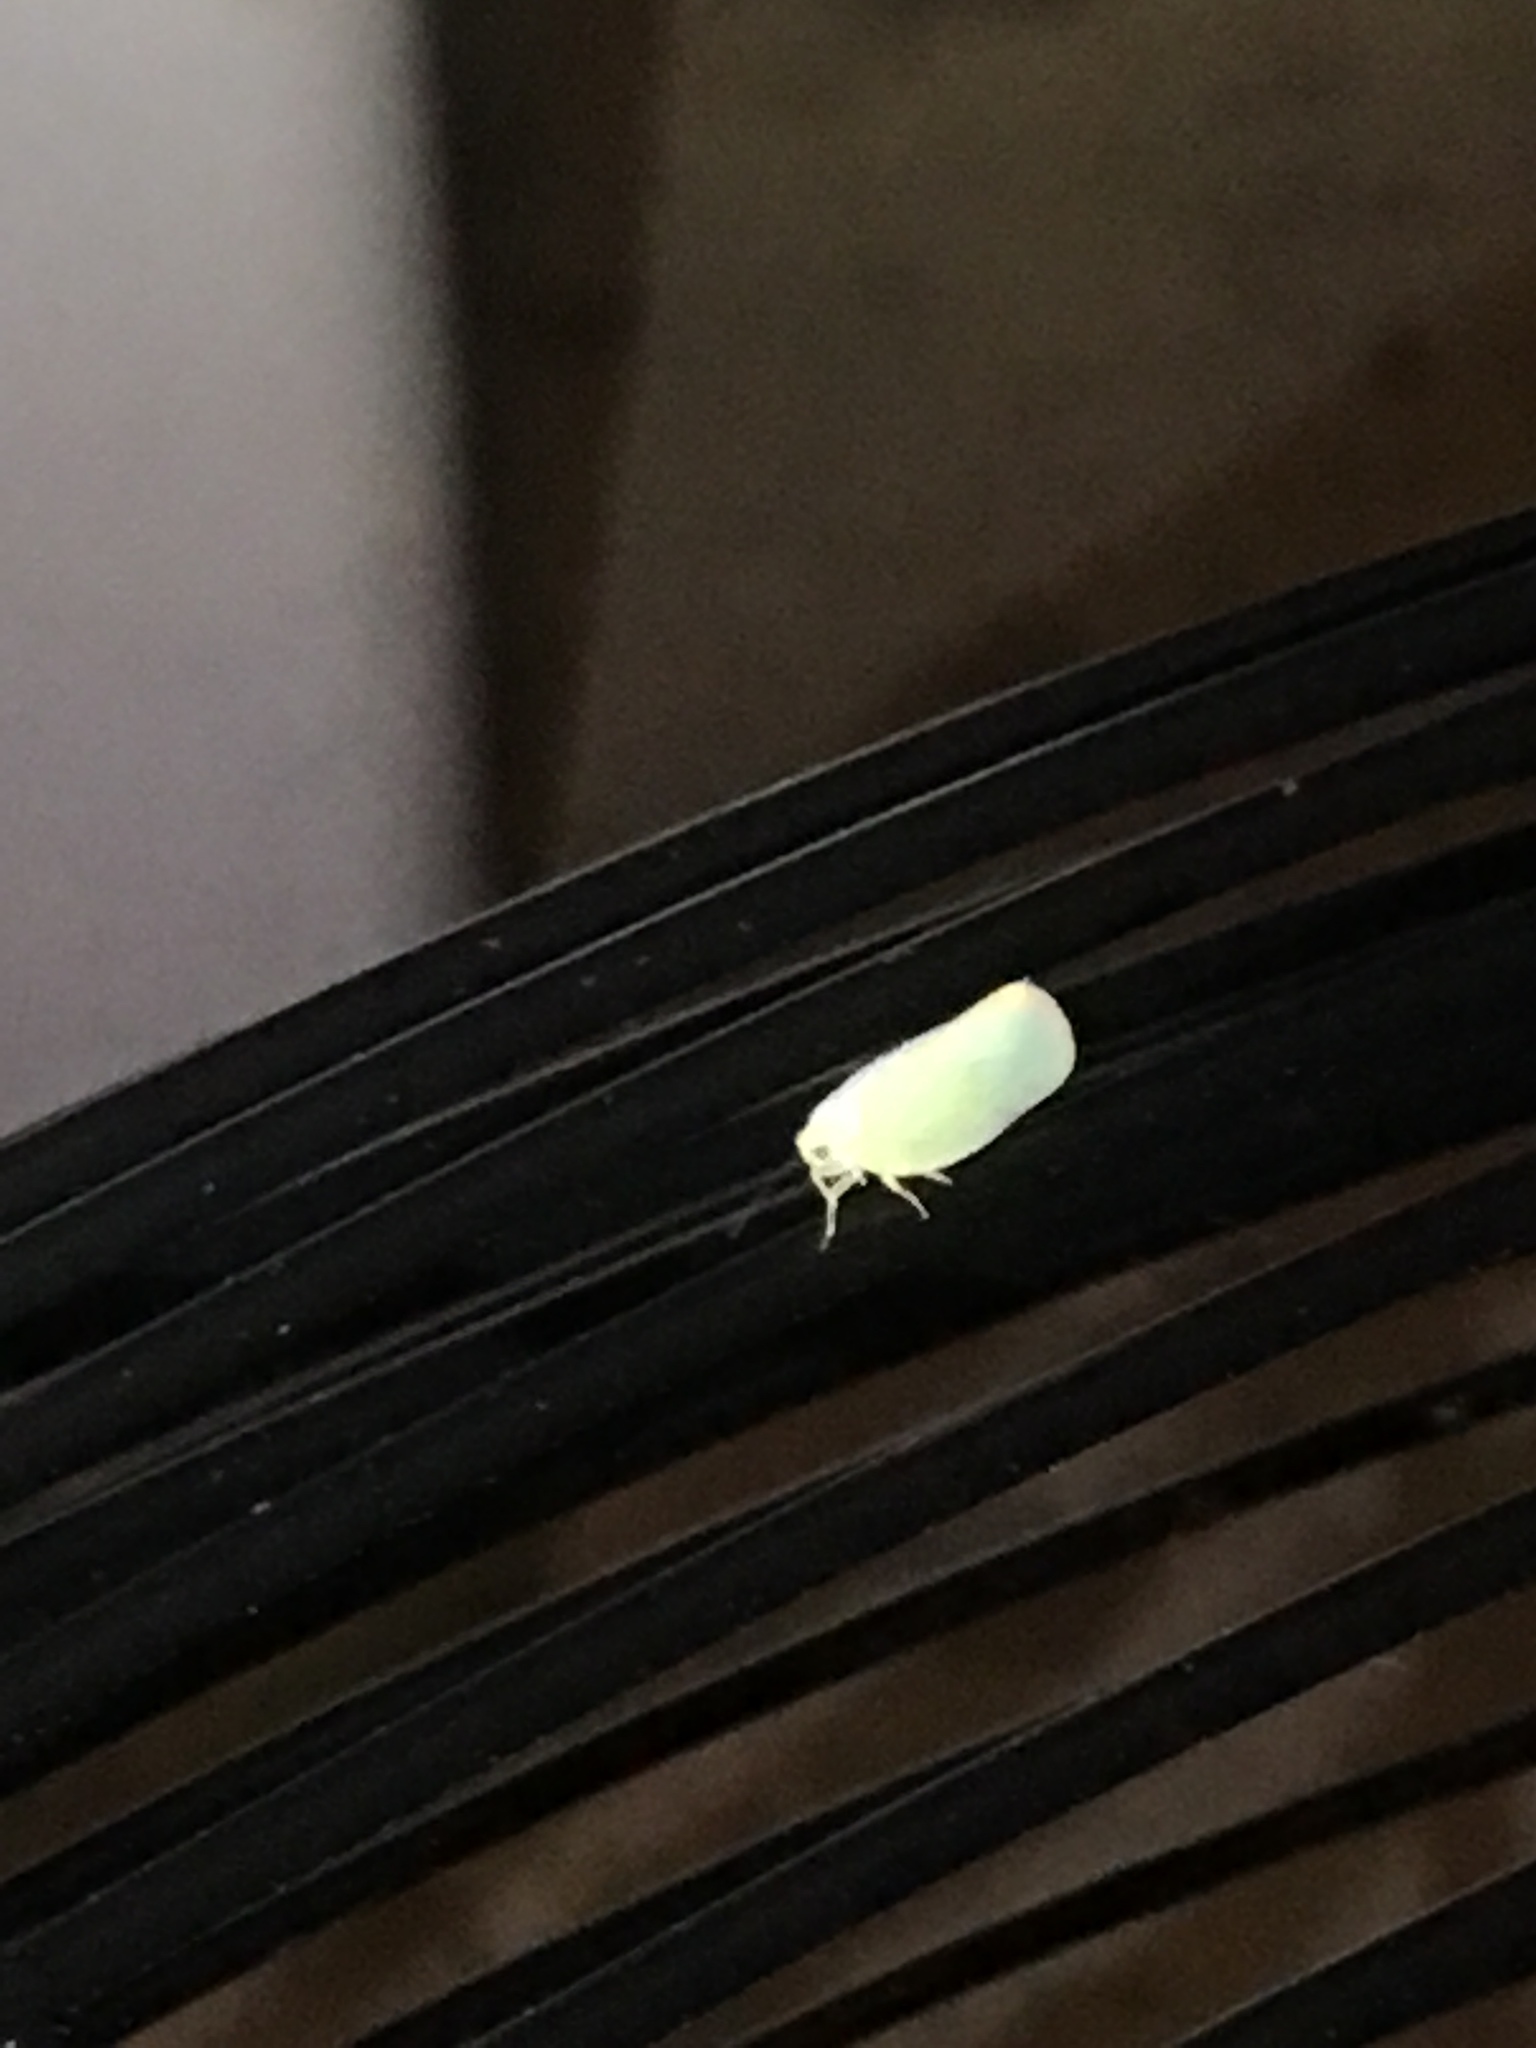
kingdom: Animalia
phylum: Arthropoda
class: Insecta
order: Hemiptera
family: Flatidae
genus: Ormenoides
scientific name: Ormenoides venusta
